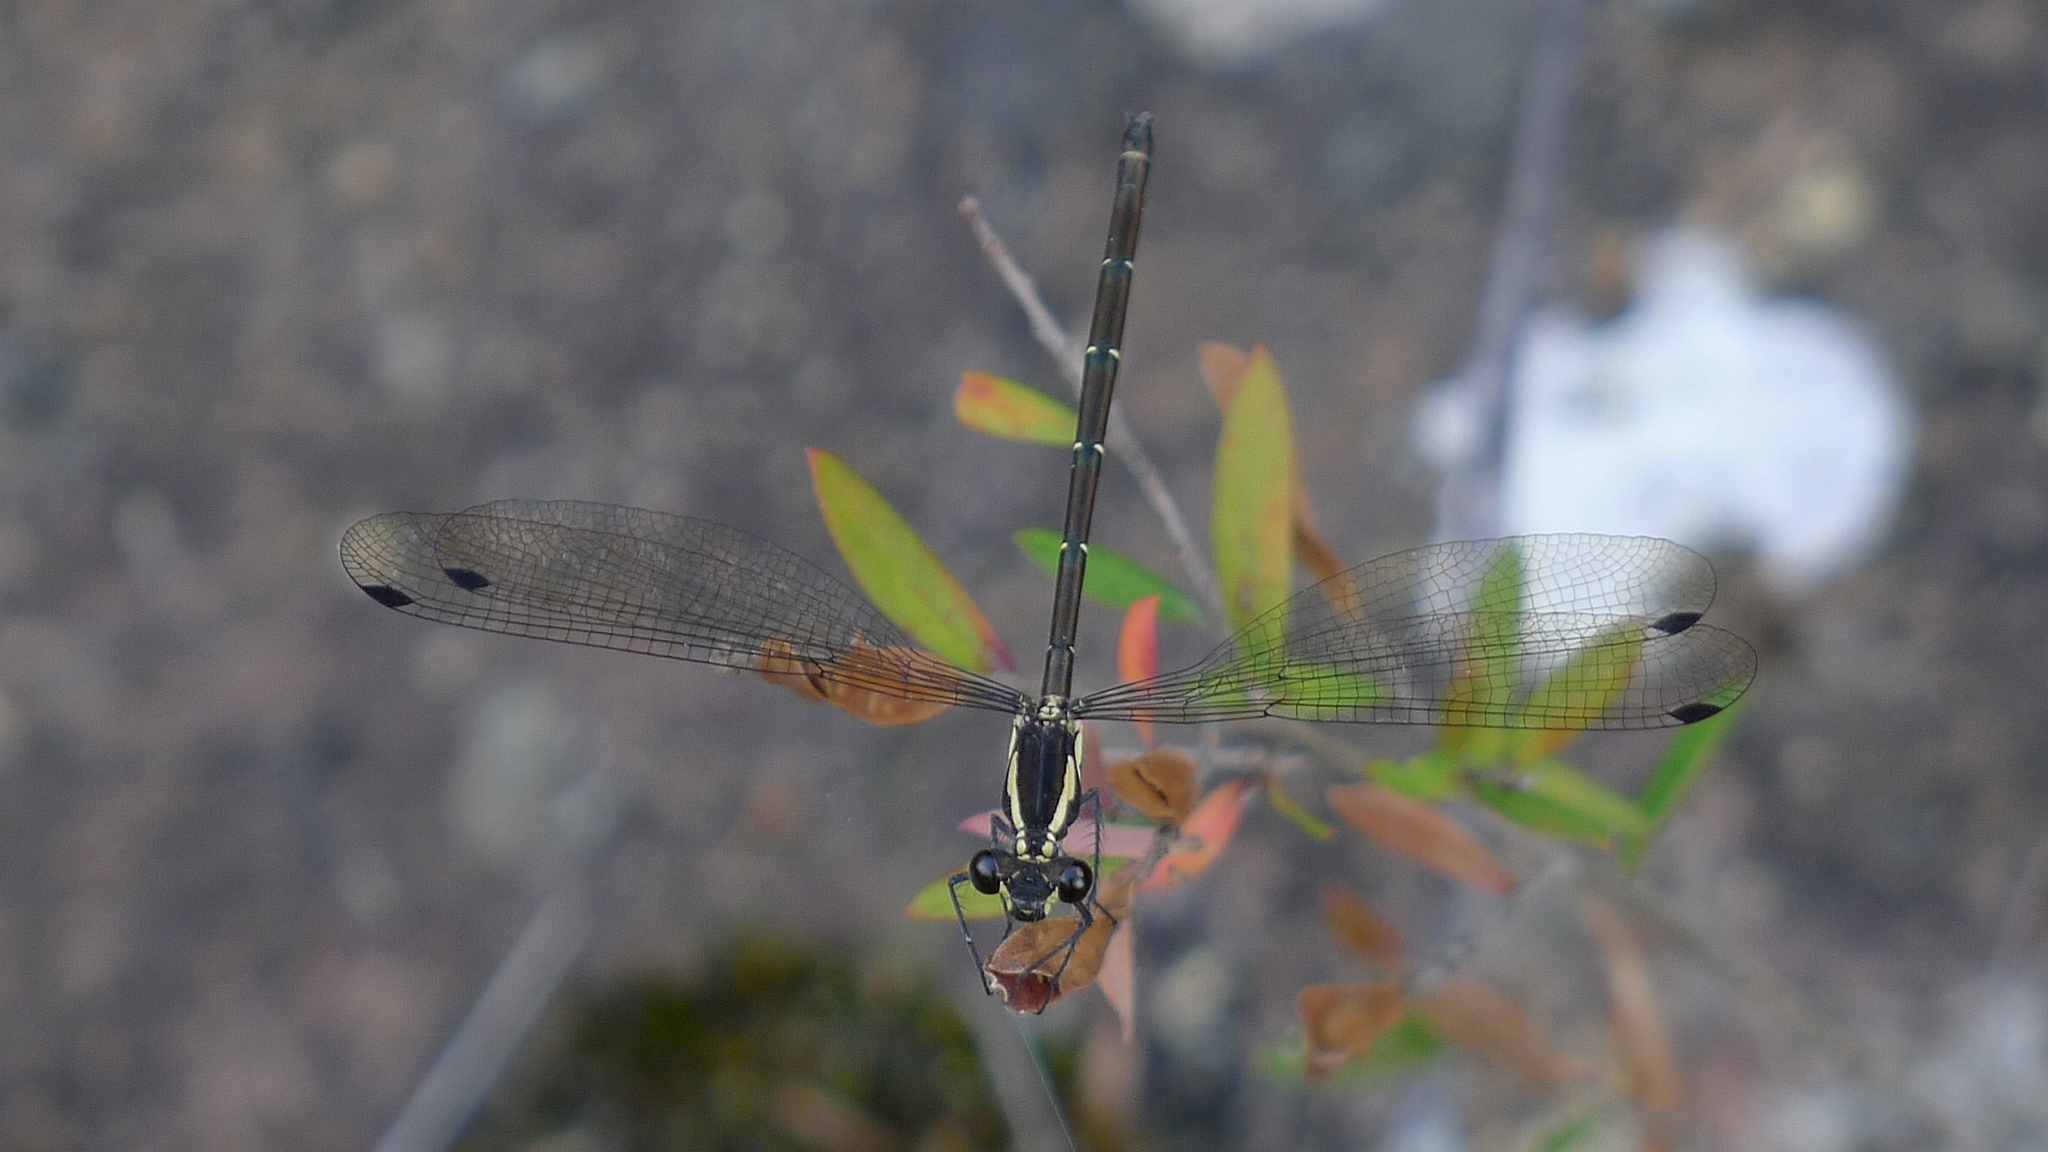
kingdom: Animalia
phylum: Arthropoda
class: Insecta
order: Odonata
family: Argiolestidae
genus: Austroargiolestes
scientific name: Austroargiolestes icteromelas
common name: Common flatwing
